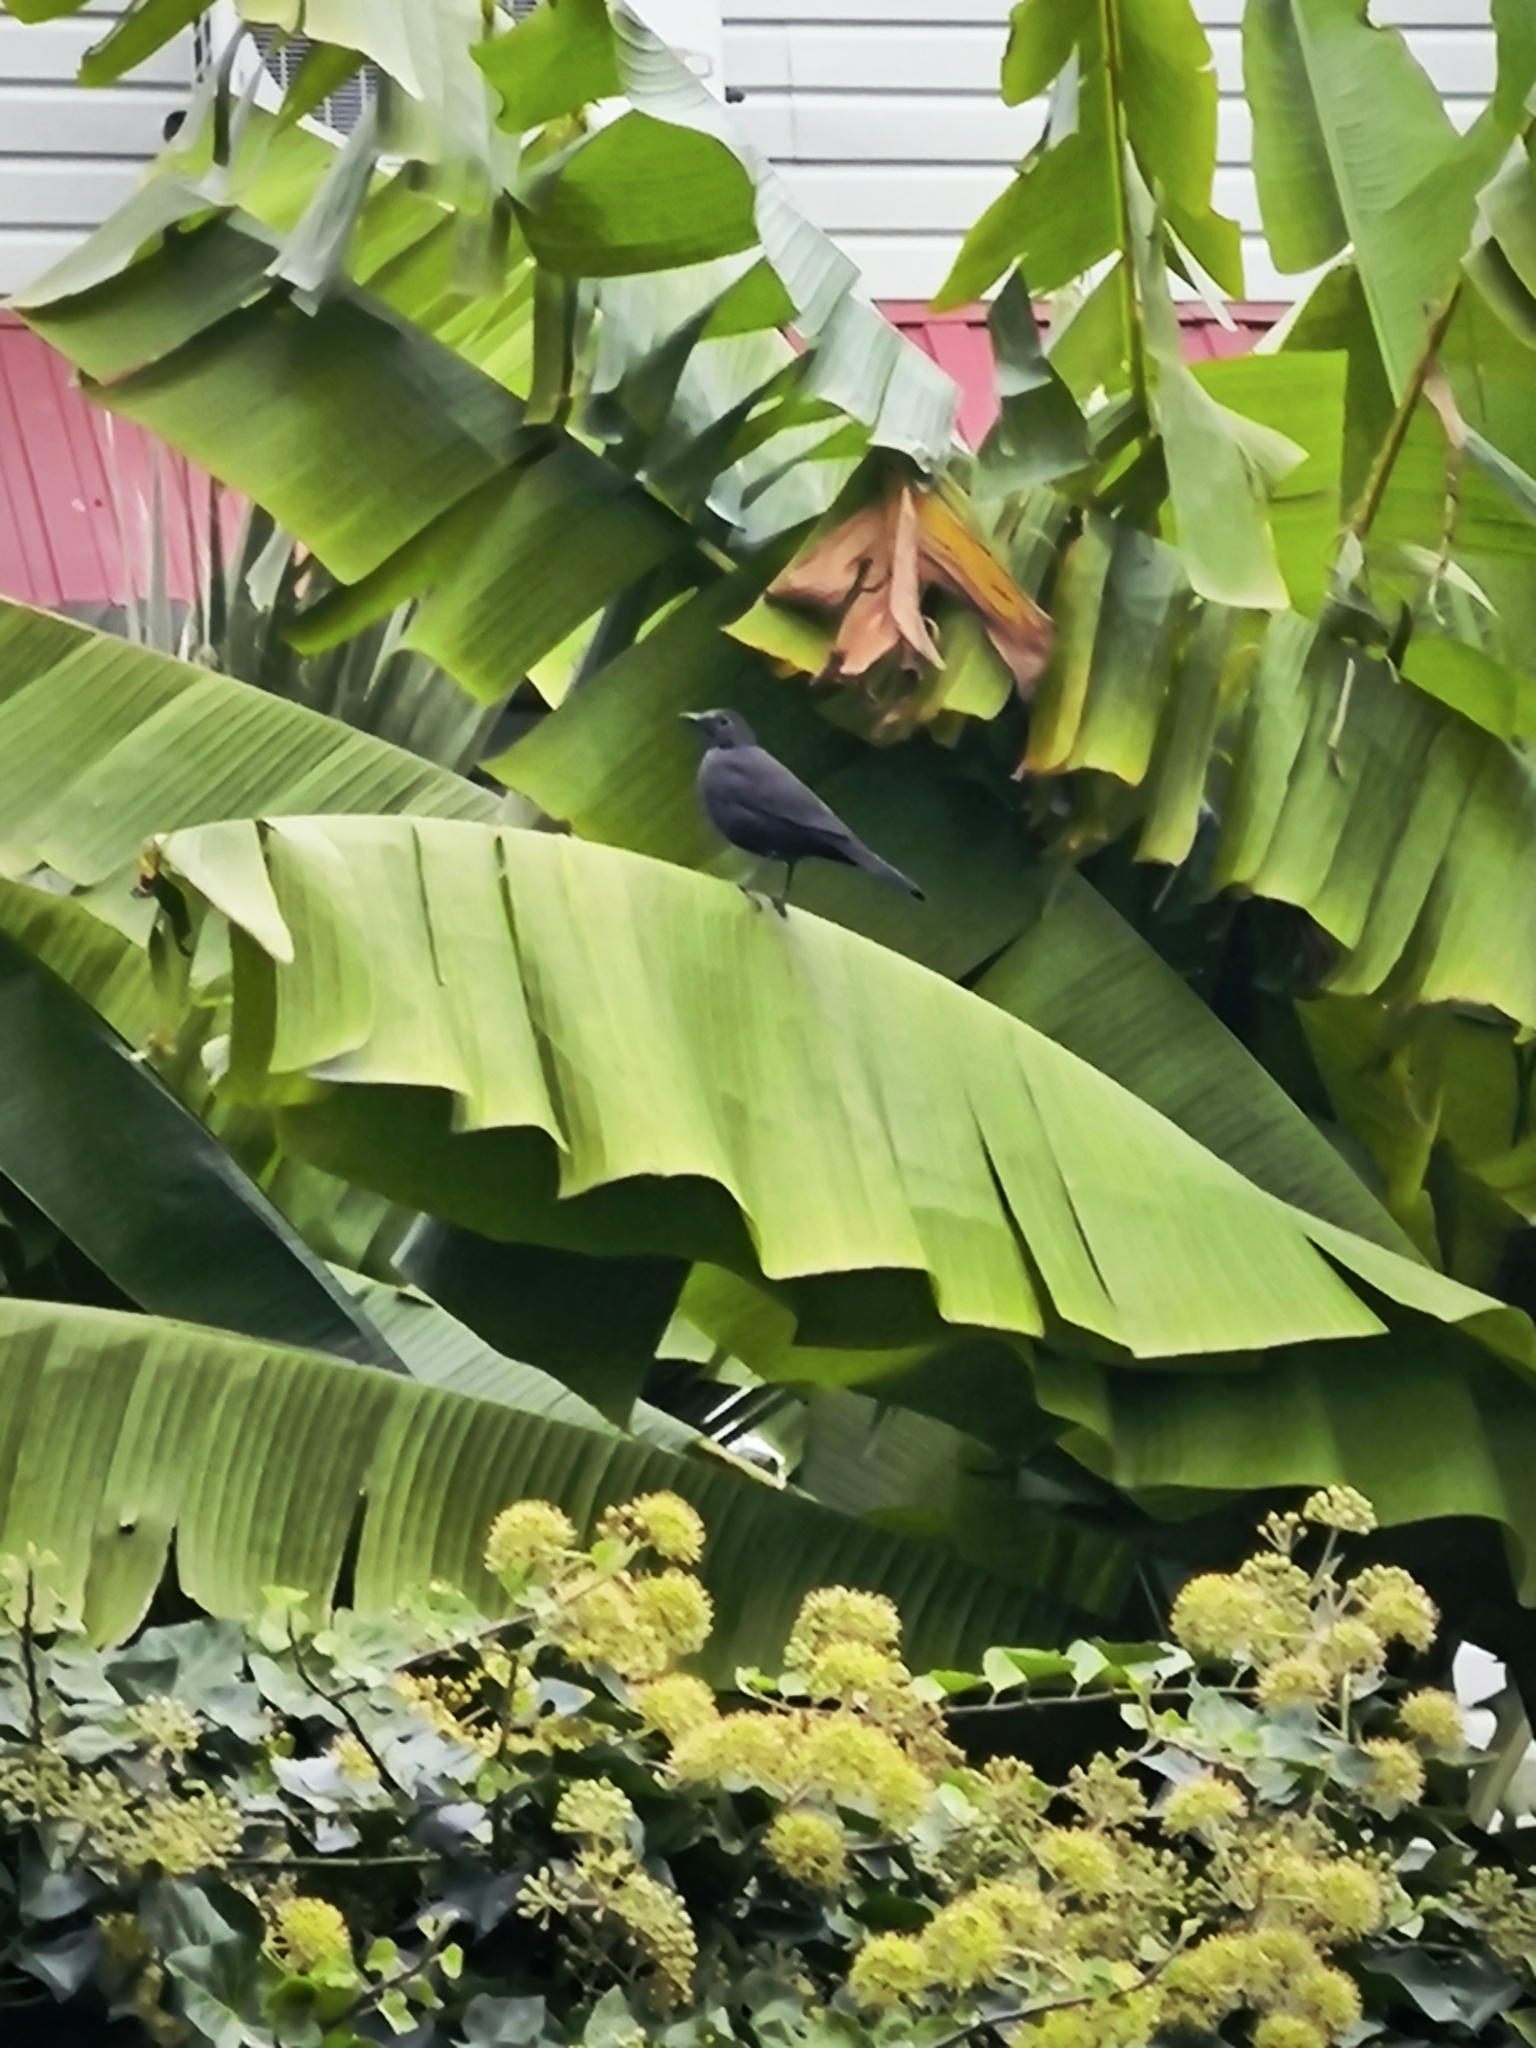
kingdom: Animalia
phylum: Chordata
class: Aves
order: Passeriformes
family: Turdidae
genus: Turdus
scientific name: Turdus merula
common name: Common blackbird
